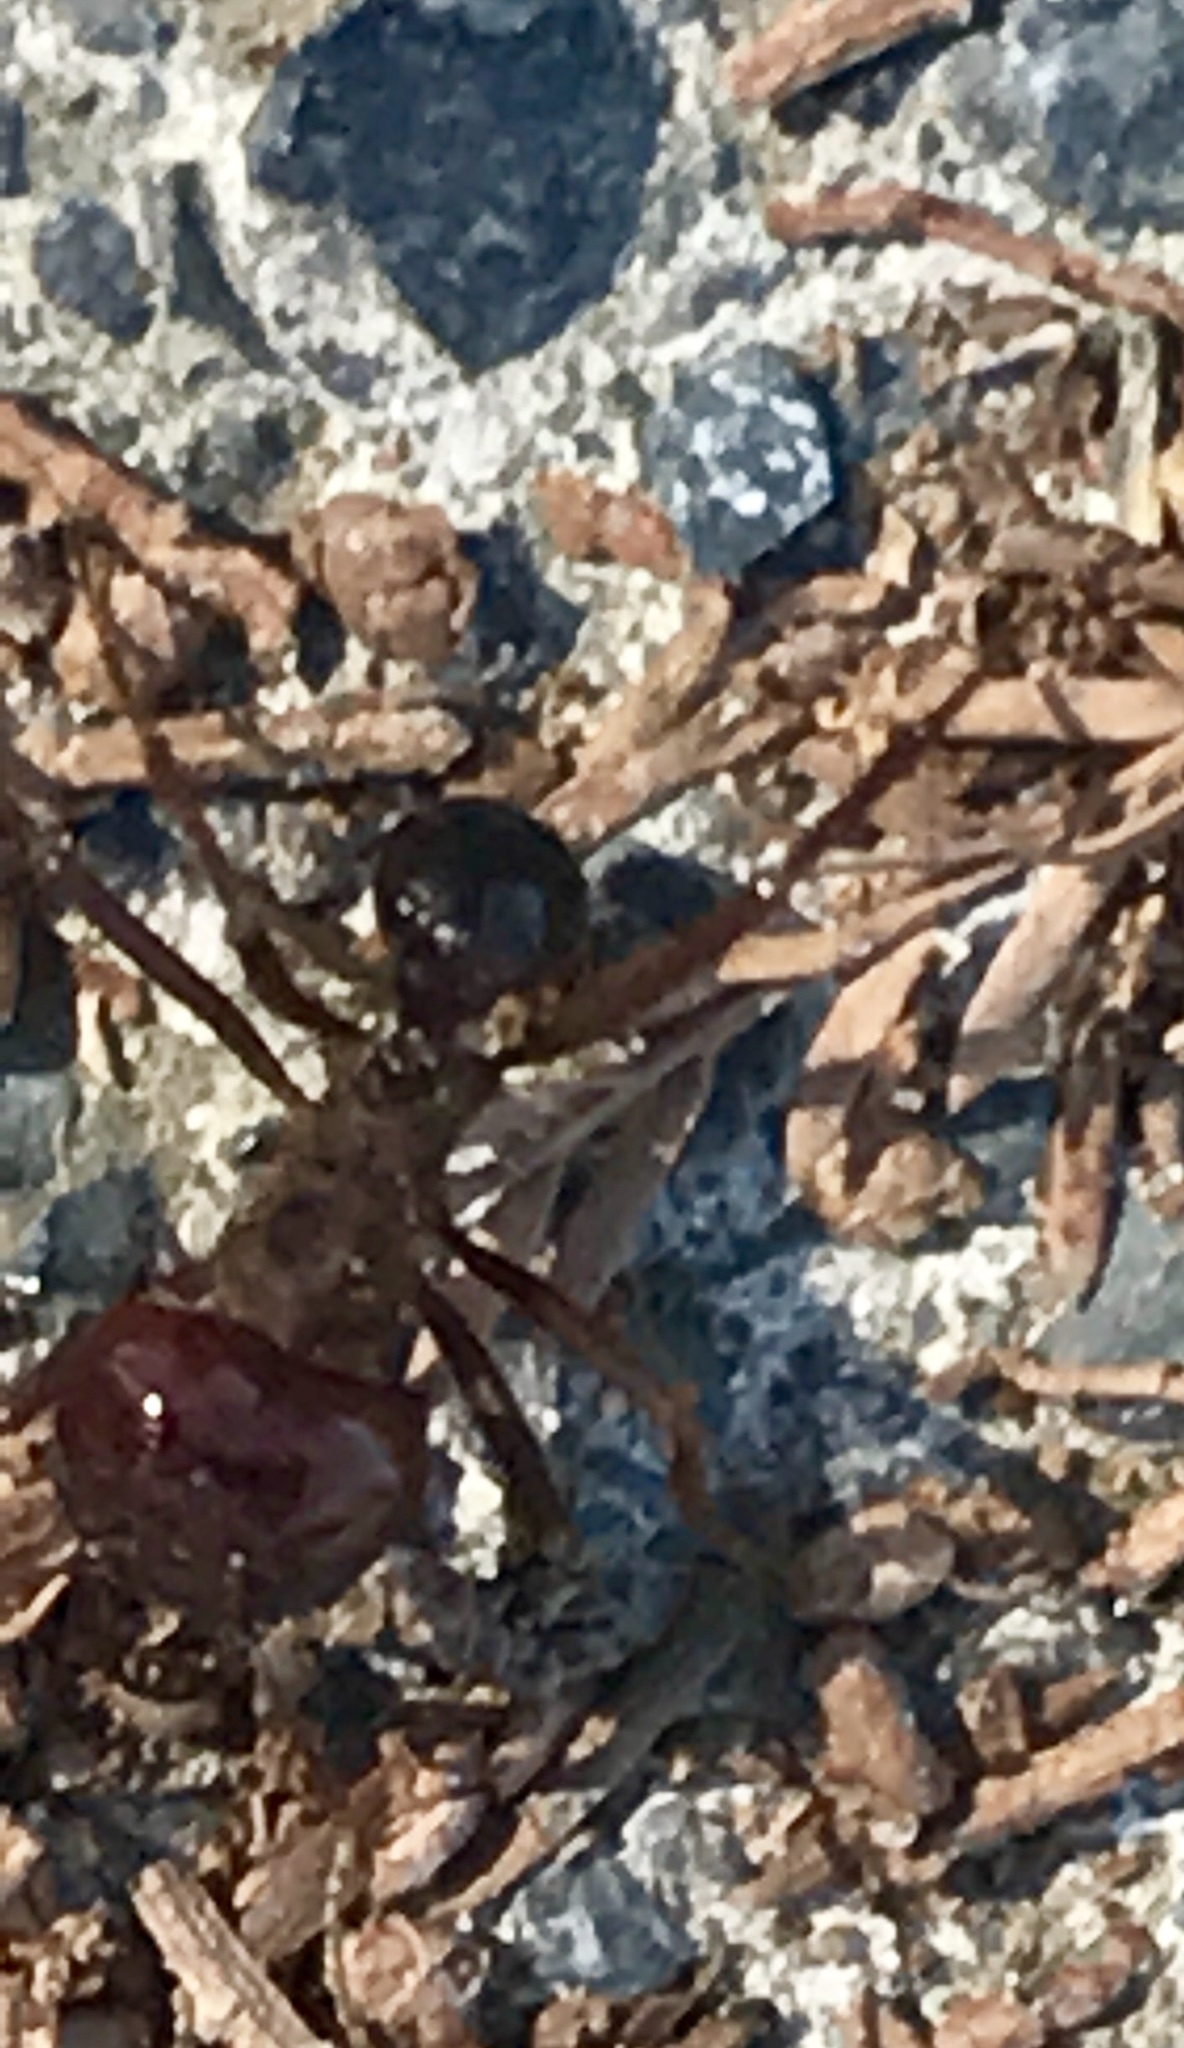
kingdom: Animalia
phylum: Arthropoda
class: Insecta
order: Hymenoptera
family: Formicidae
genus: Atta
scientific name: Atta mexicana
